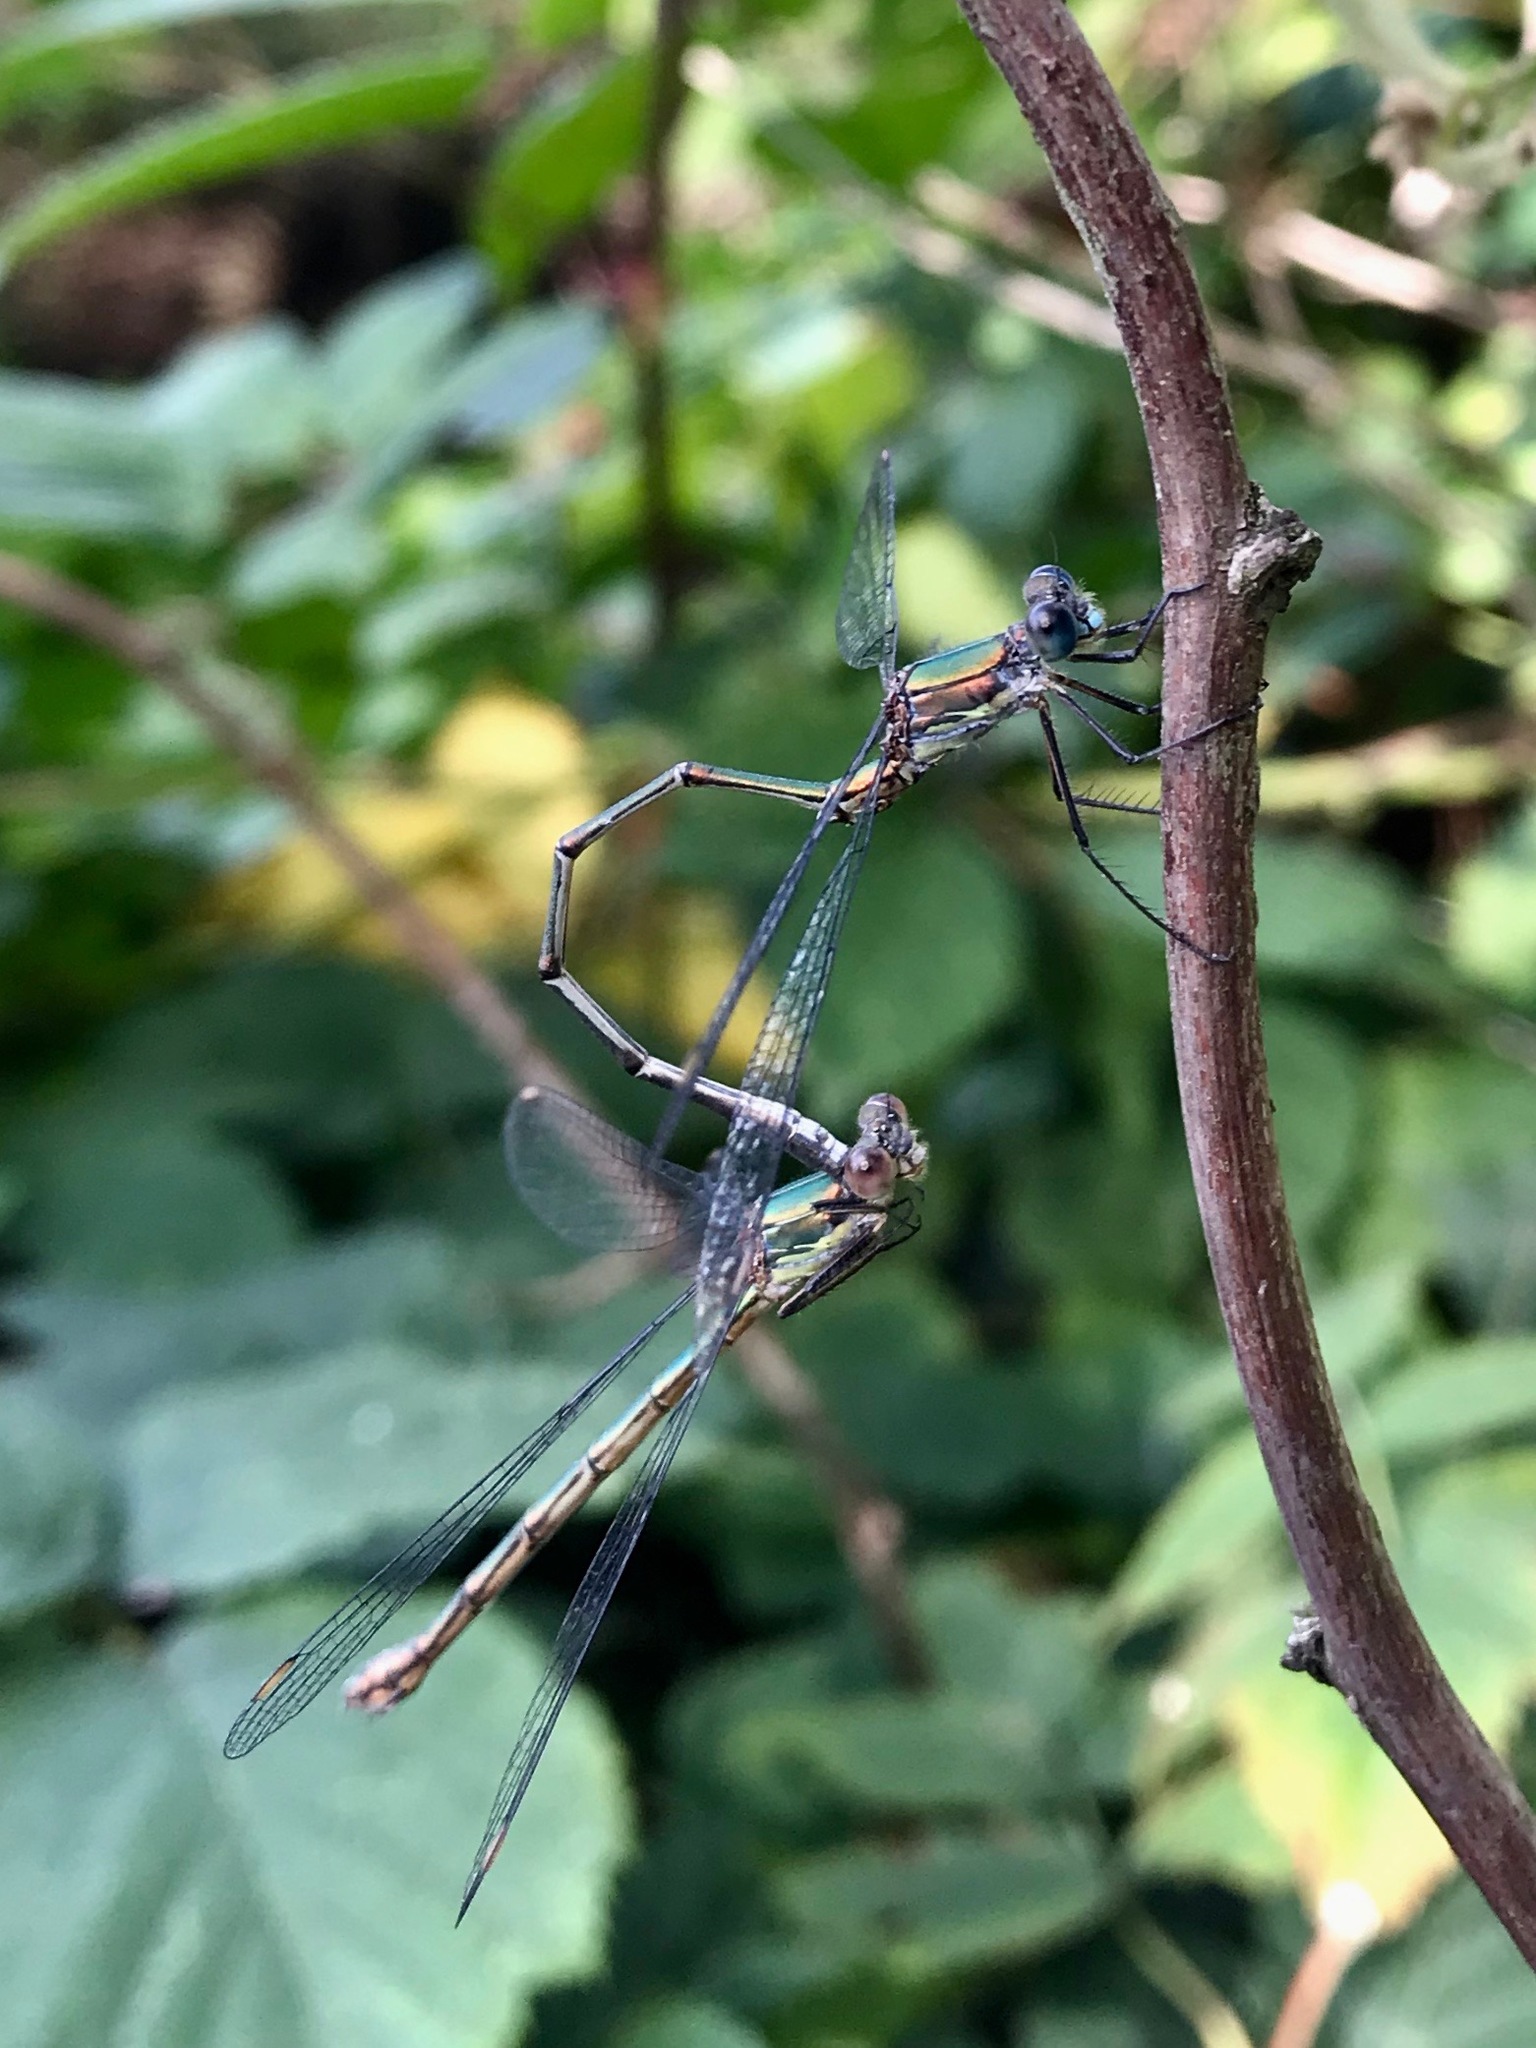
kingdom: Animalia
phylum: Arthropoda
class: Insecta
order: Odonata
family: Lestidae
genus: Chalcolestes
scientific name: Chalcolestes viridis
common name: Green emerald damselfly
